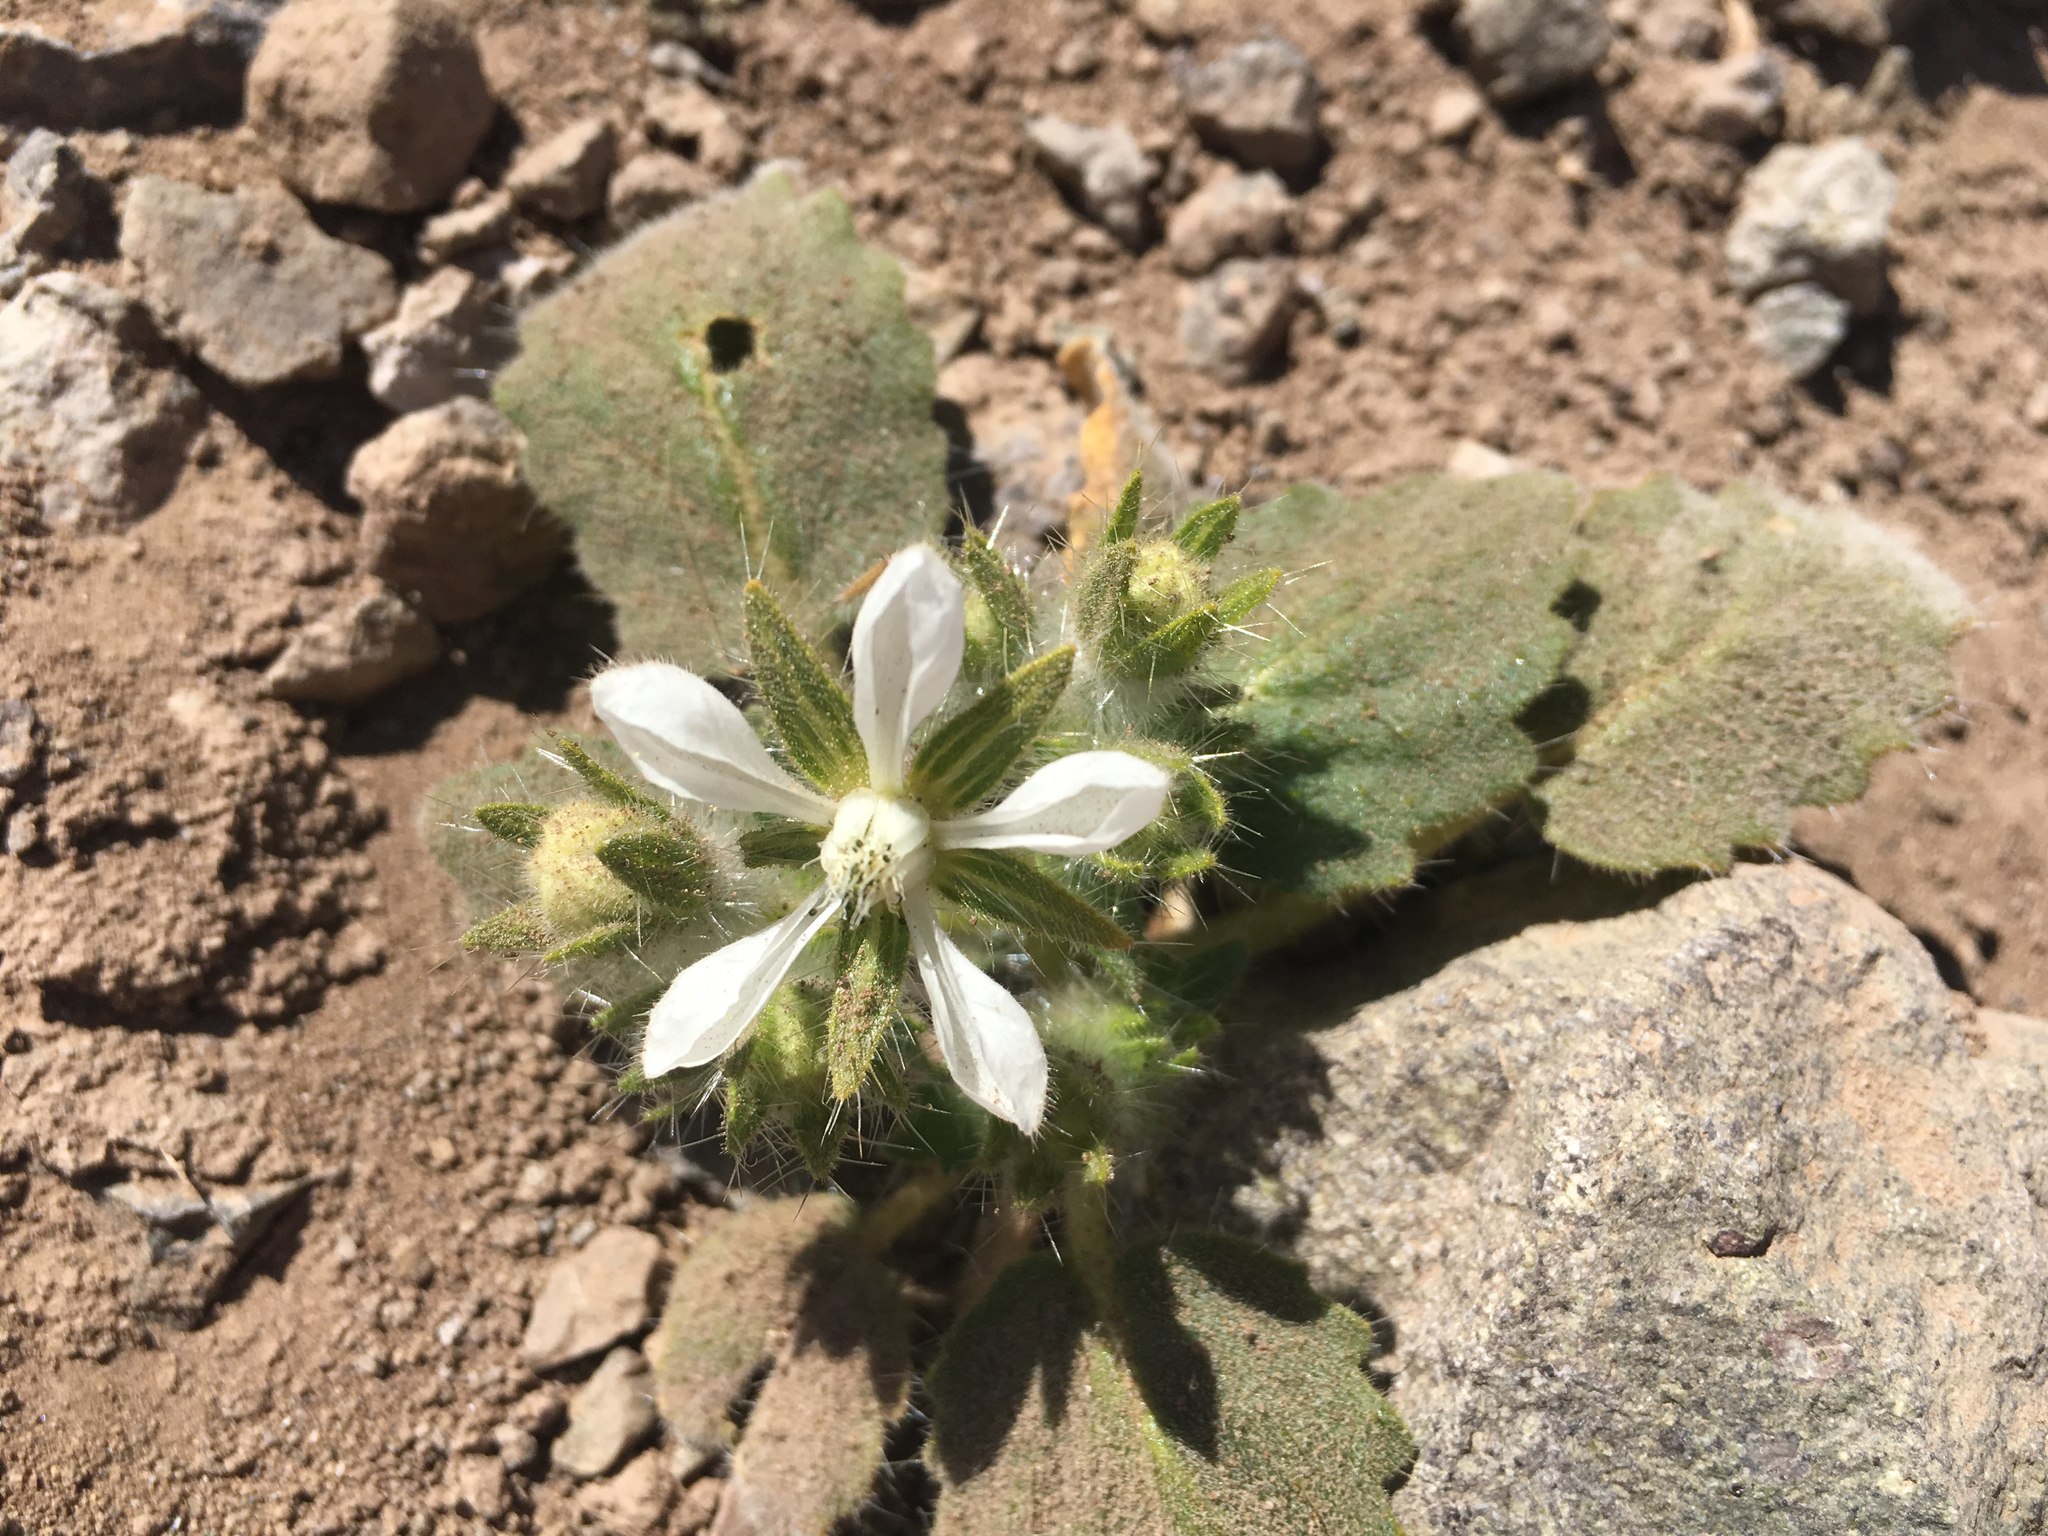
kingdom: Plantae
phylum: Tracheophyta
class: Magnoliopsida
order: Cornales
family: Loasaceae
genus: Presliophytum
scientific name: Presliophytum malesherbioides
